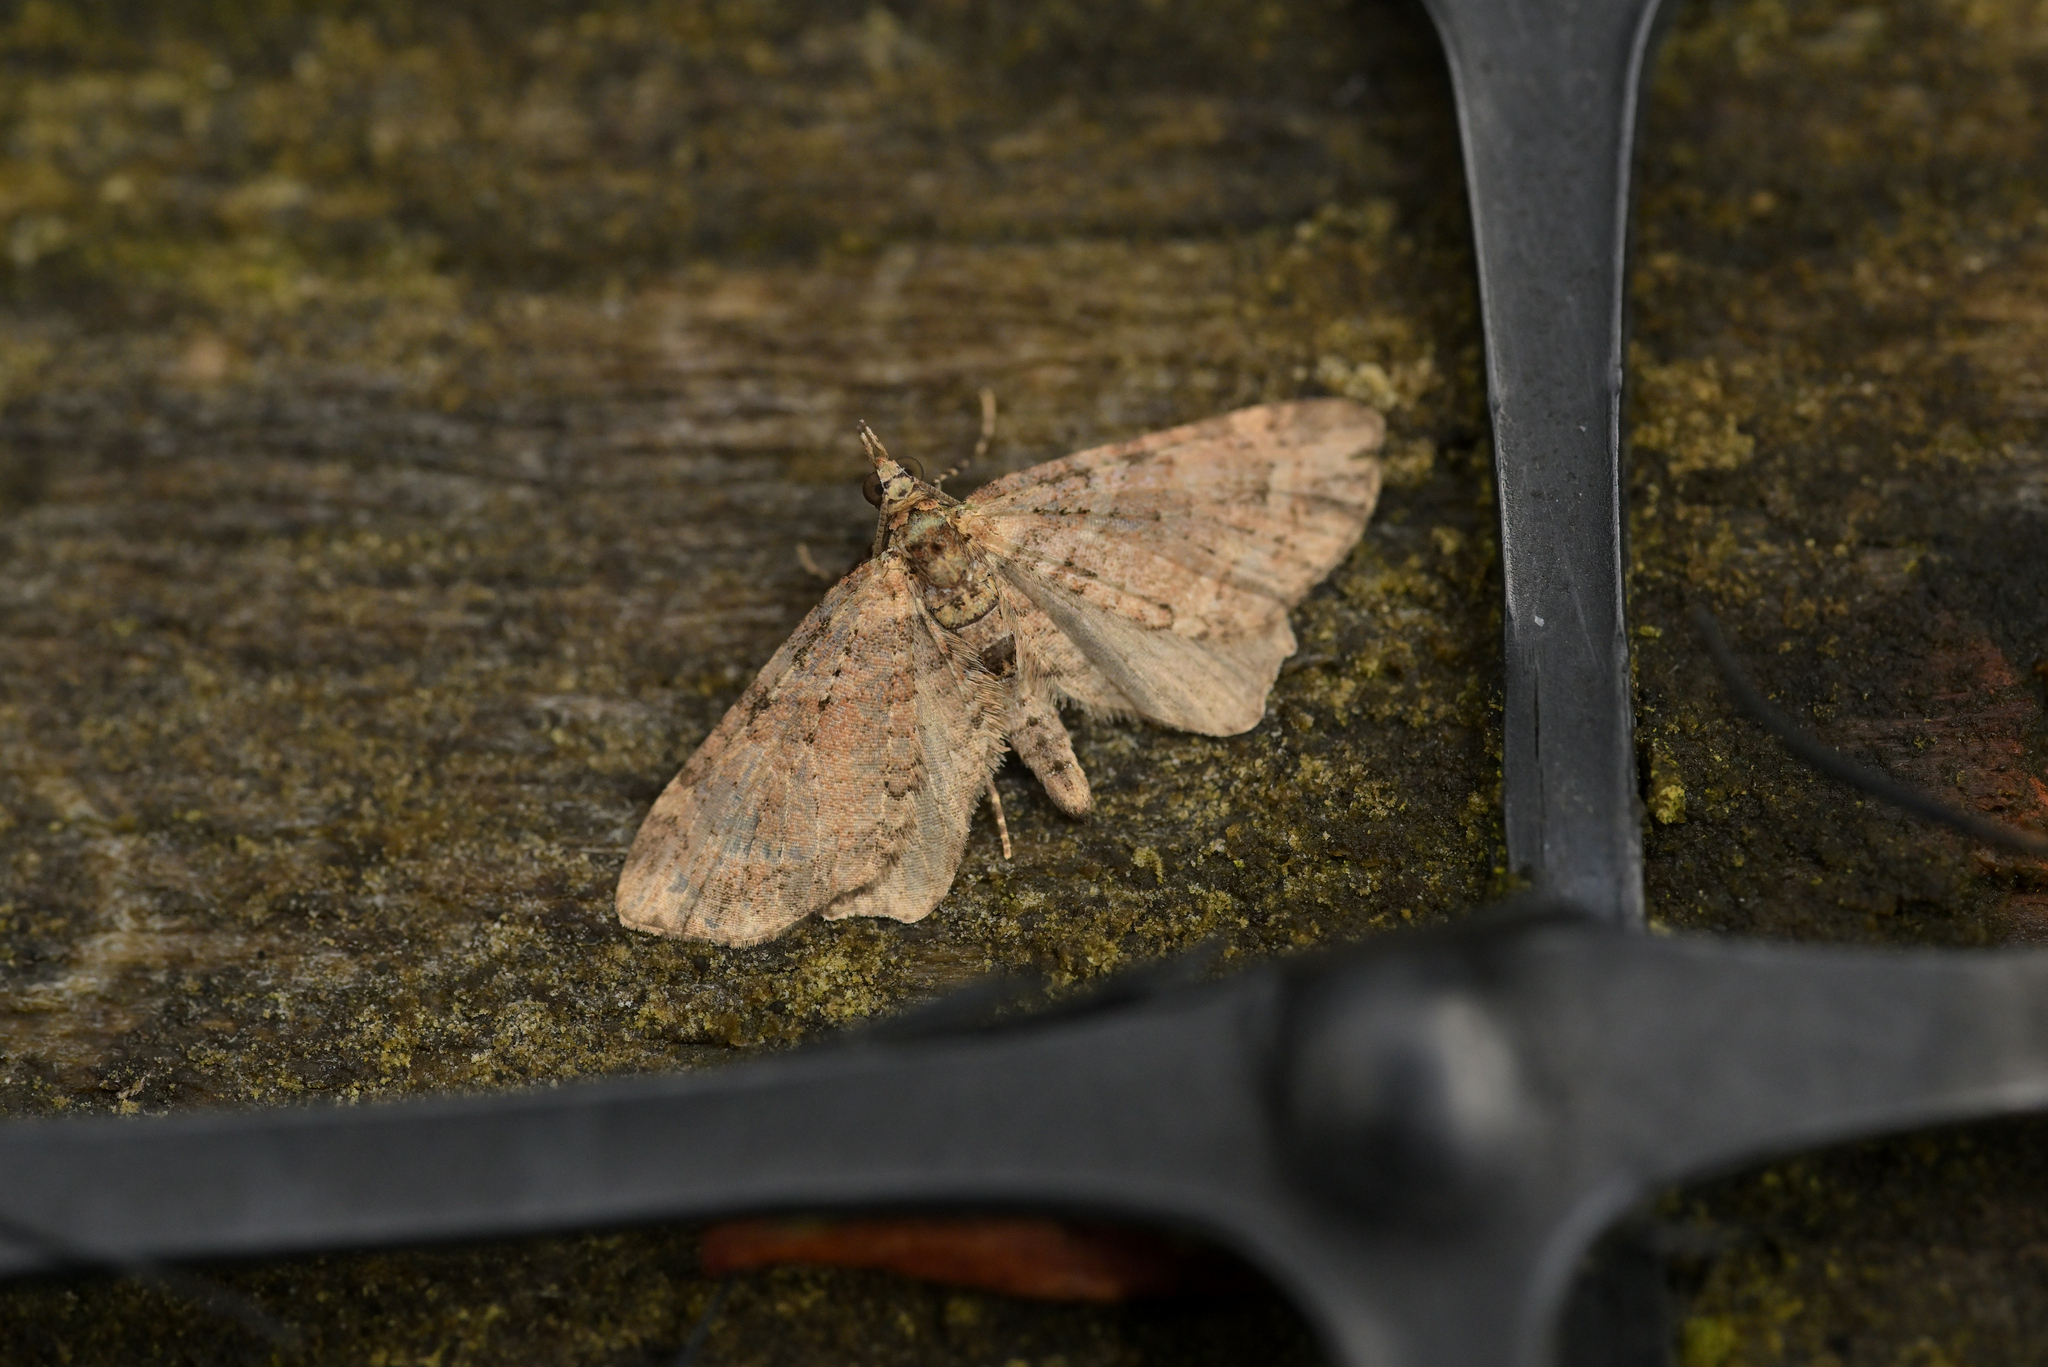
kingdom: Animalia
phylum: Arthropoda
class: Insecta
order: Lepidoptera
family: Geometridae
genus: Idaea
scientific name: Idaea mutanda
